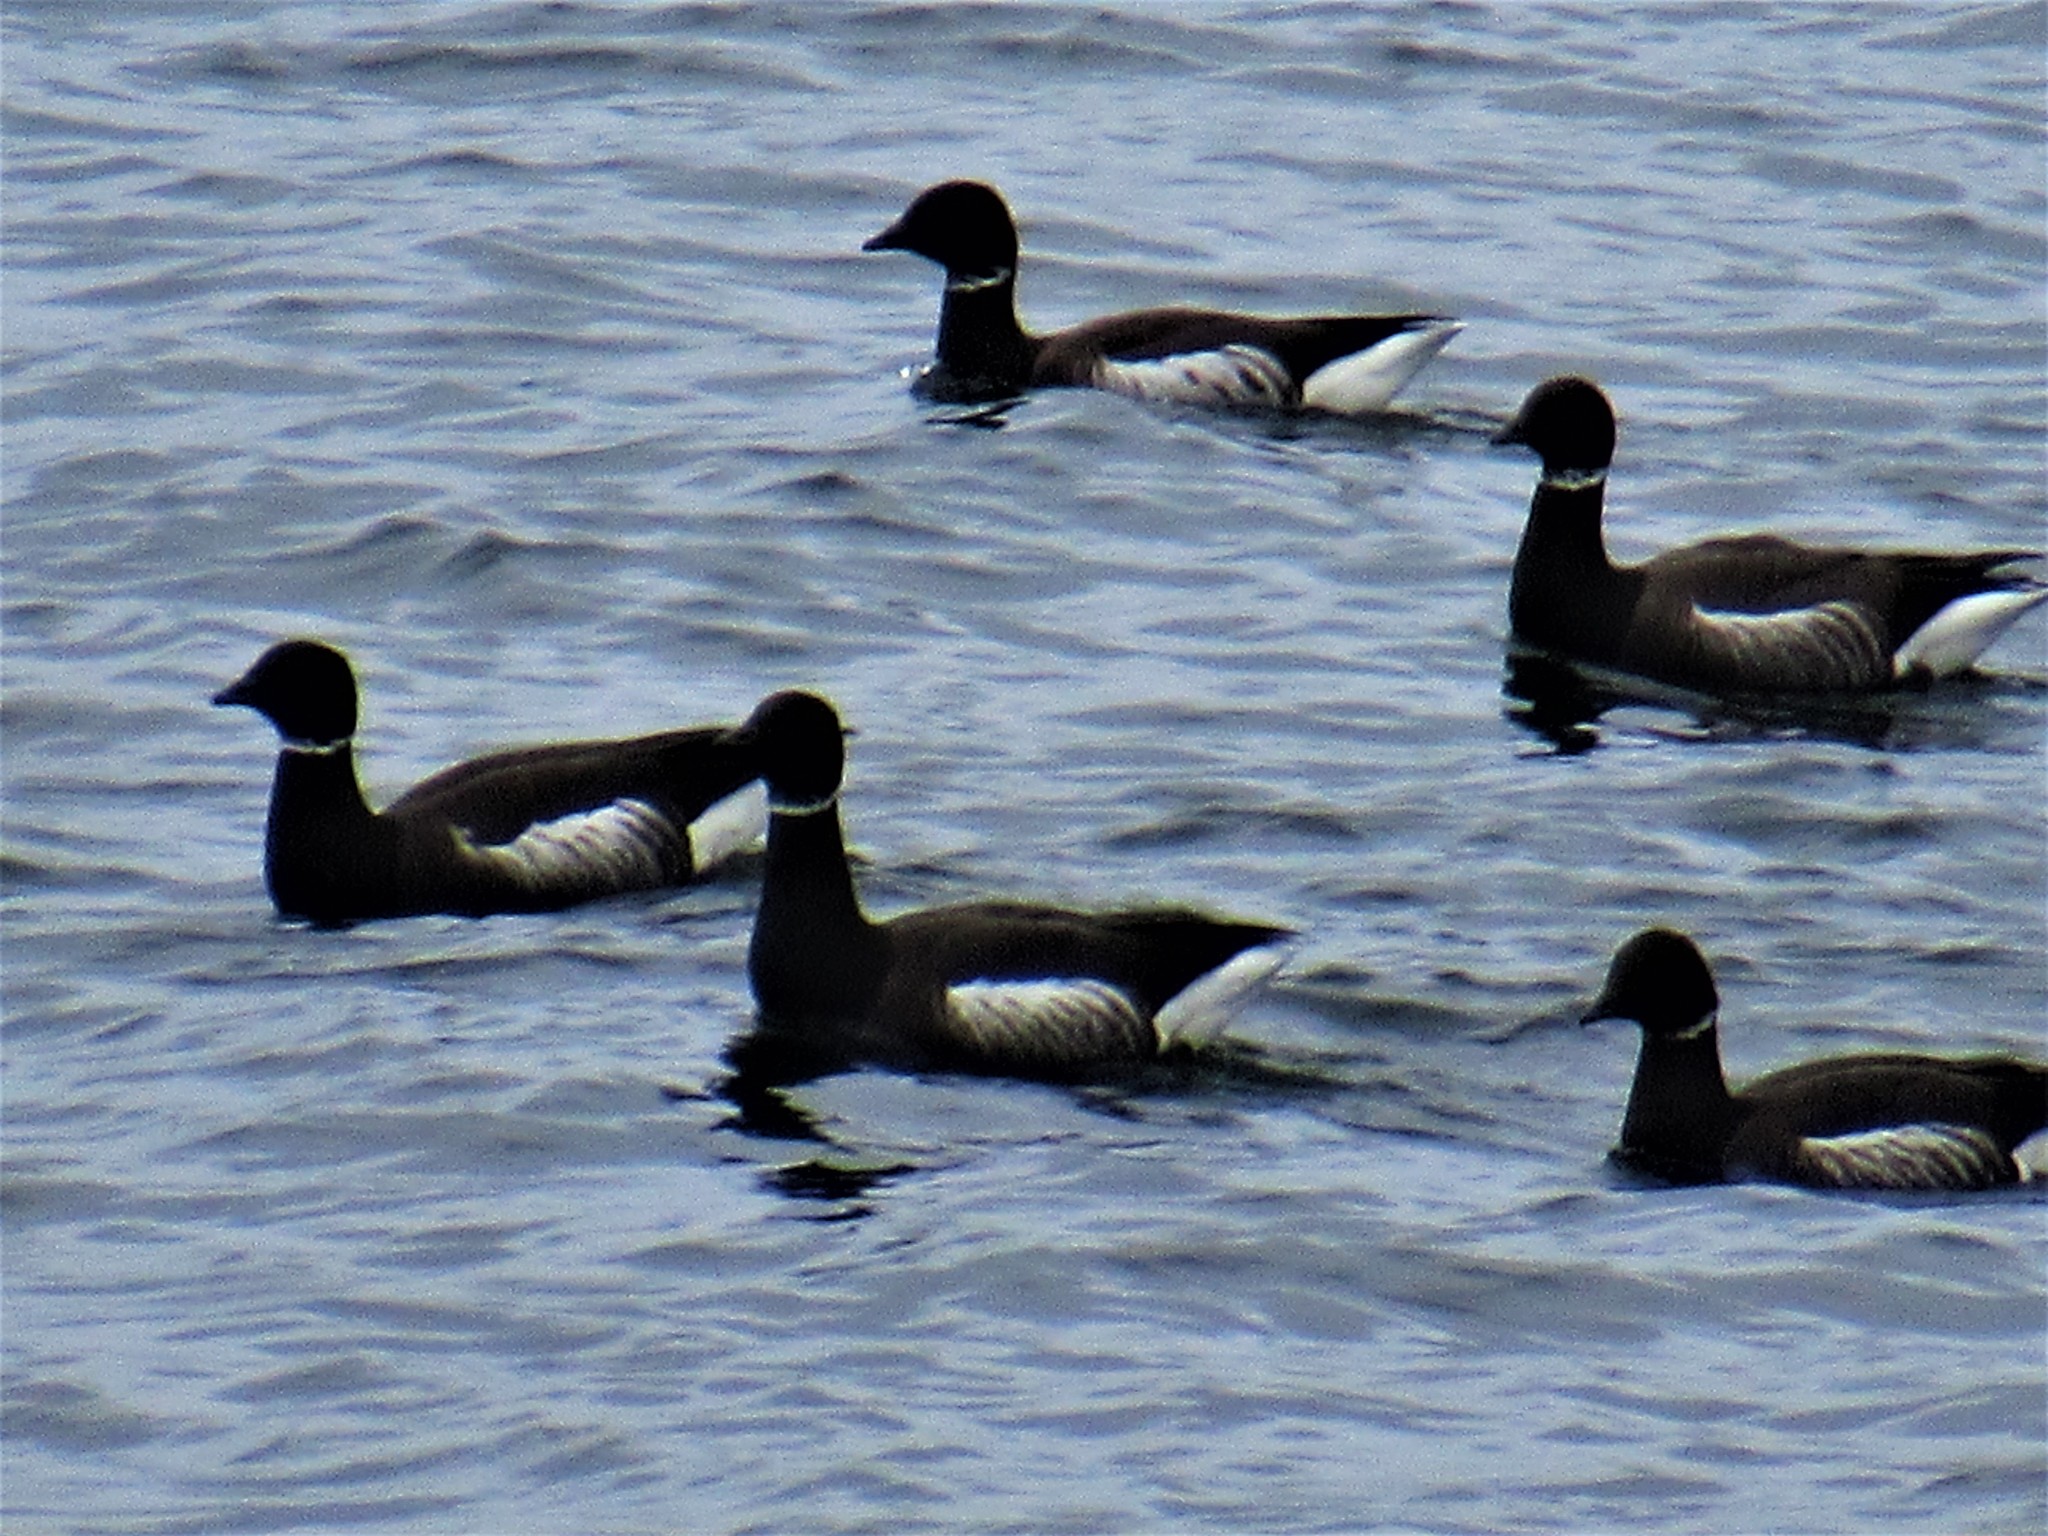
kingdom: Animalia
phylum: Chordata
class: Aves
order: Anseriformes
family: Anatidae
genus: Branta
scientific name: Branta bernicla
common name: Brant goose
